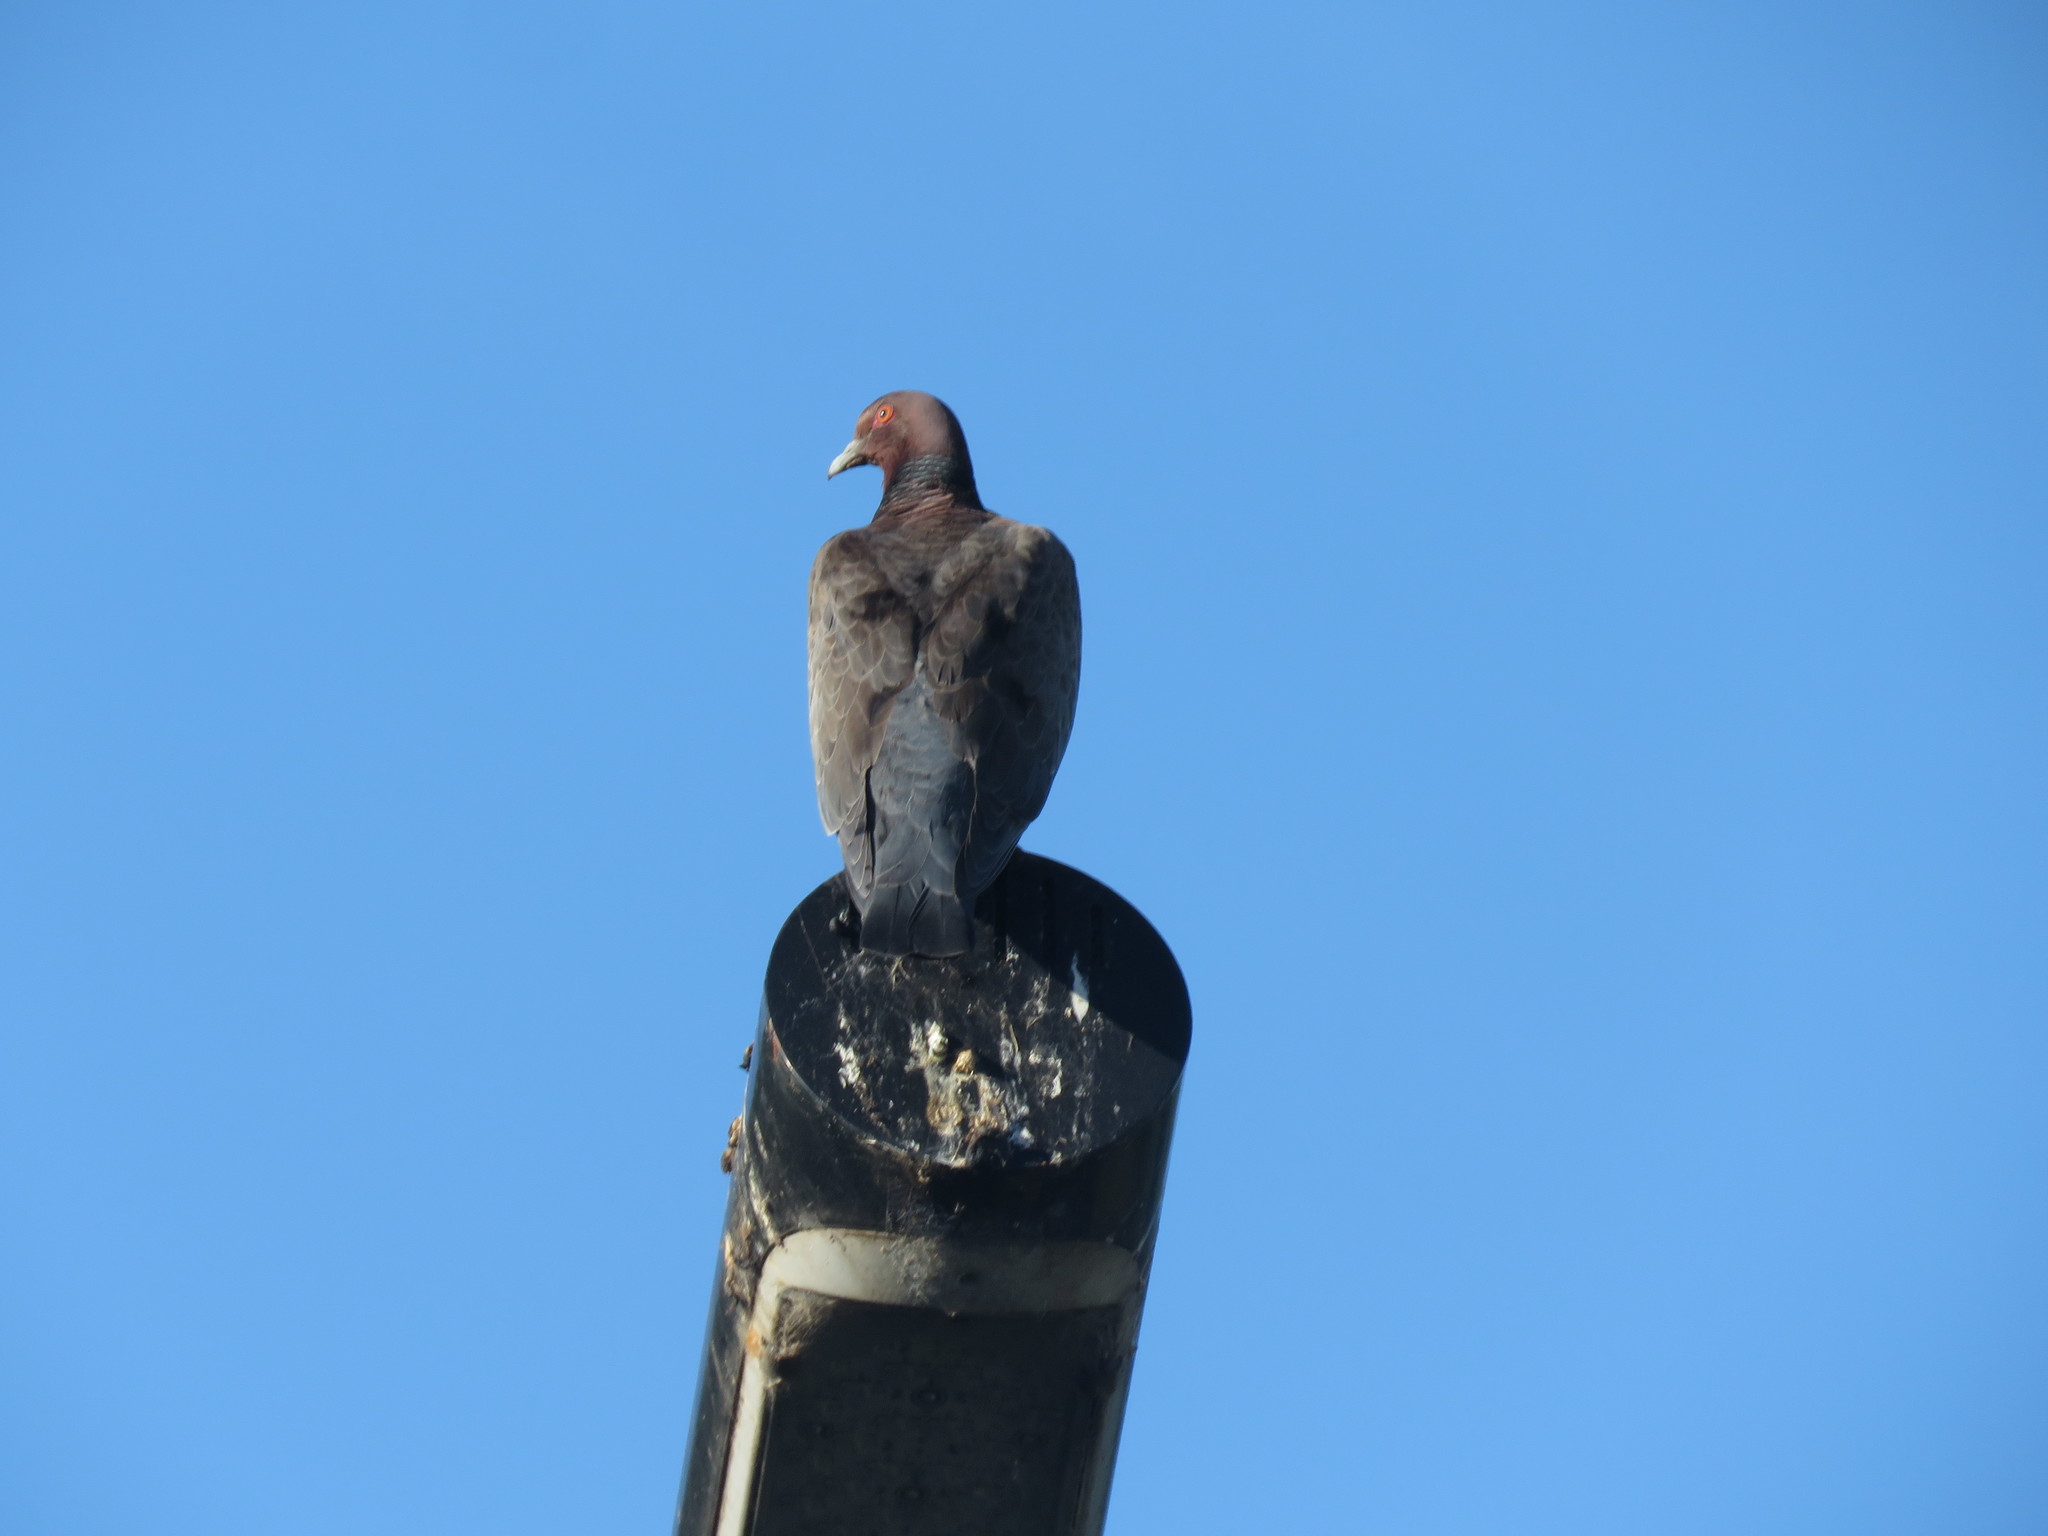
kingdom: Animalia
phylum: Chordata
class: Aves
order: Columbiformes
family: Columbidae
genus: Patagioenas
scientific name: Patagioenas picazuro
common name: Picazuro pigeon
